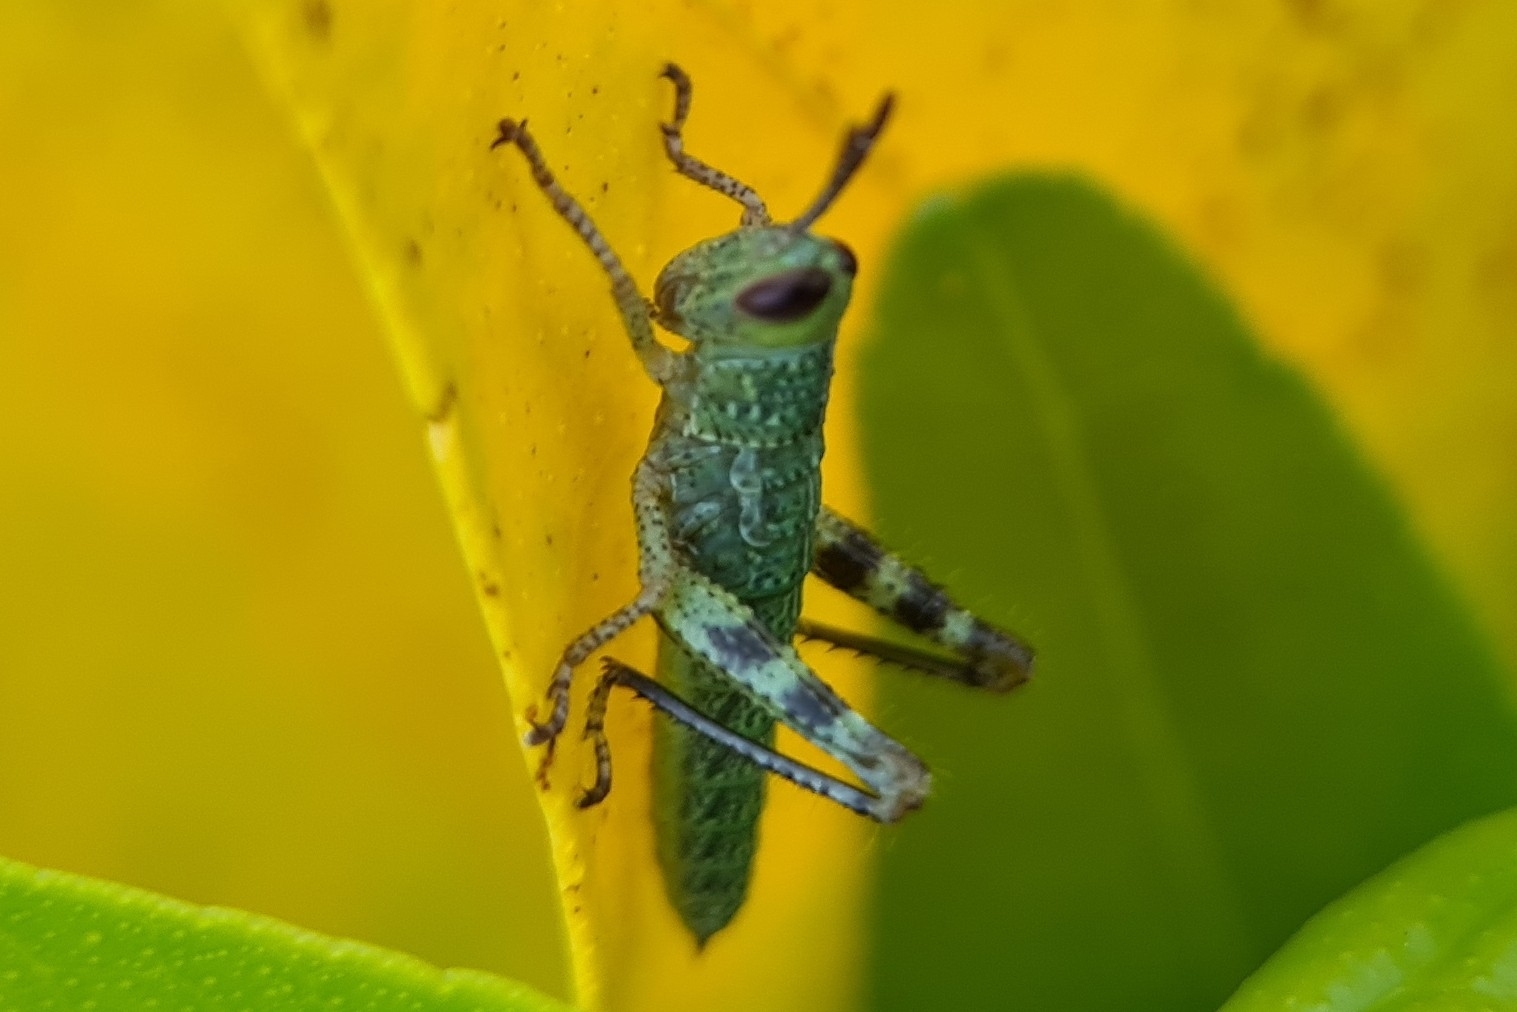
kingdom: Animalia
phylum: Arthropoda
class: Insecta
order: Orthoptera
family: Acrididae
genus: Valanga
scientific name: Valanga irregularis
